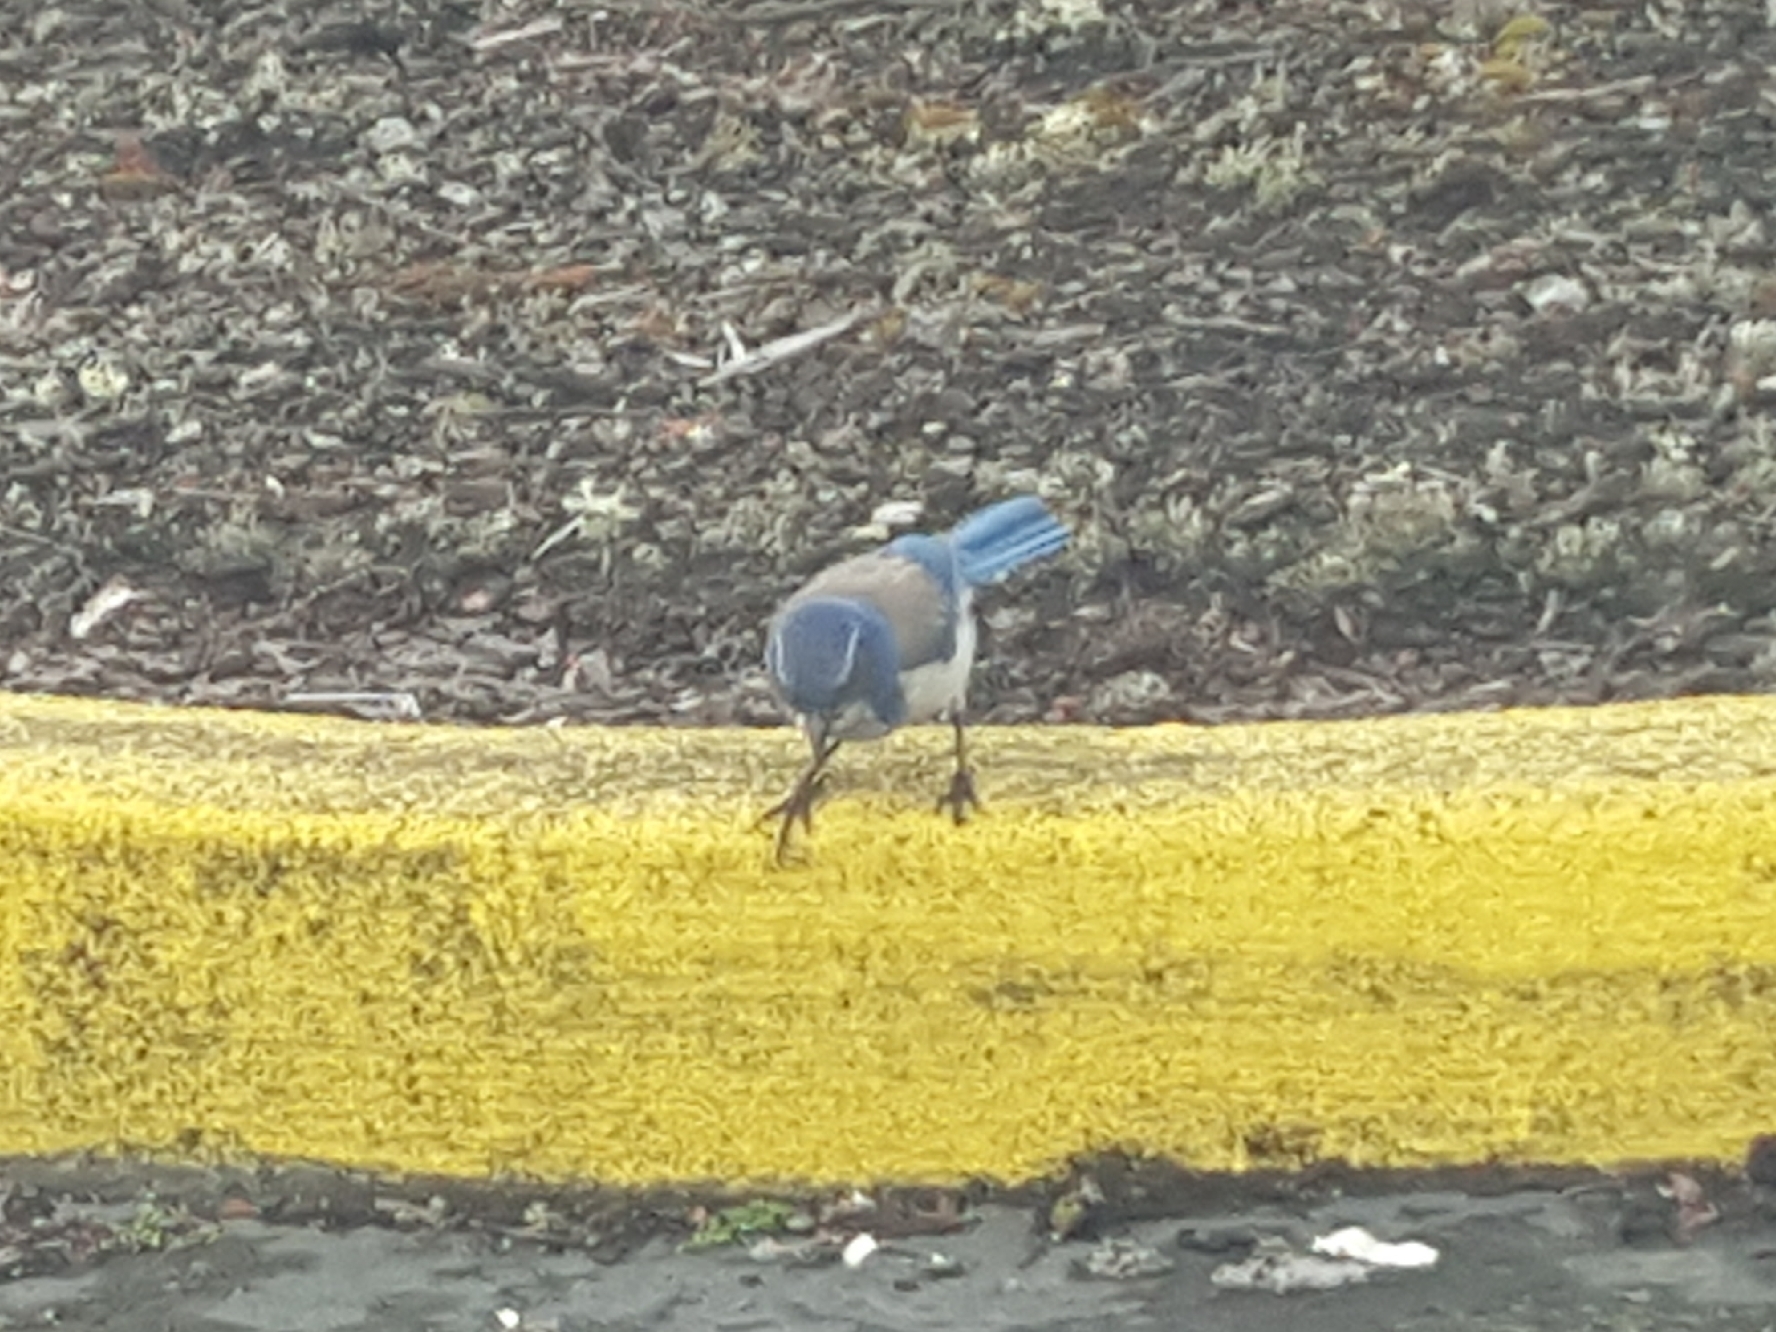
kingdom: Animalia
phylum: Chordata
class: Aves
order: Passeriformes
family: Corvidae
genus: Aphelocoma
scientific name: Aphelocoma californica
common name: California scrub-jay
